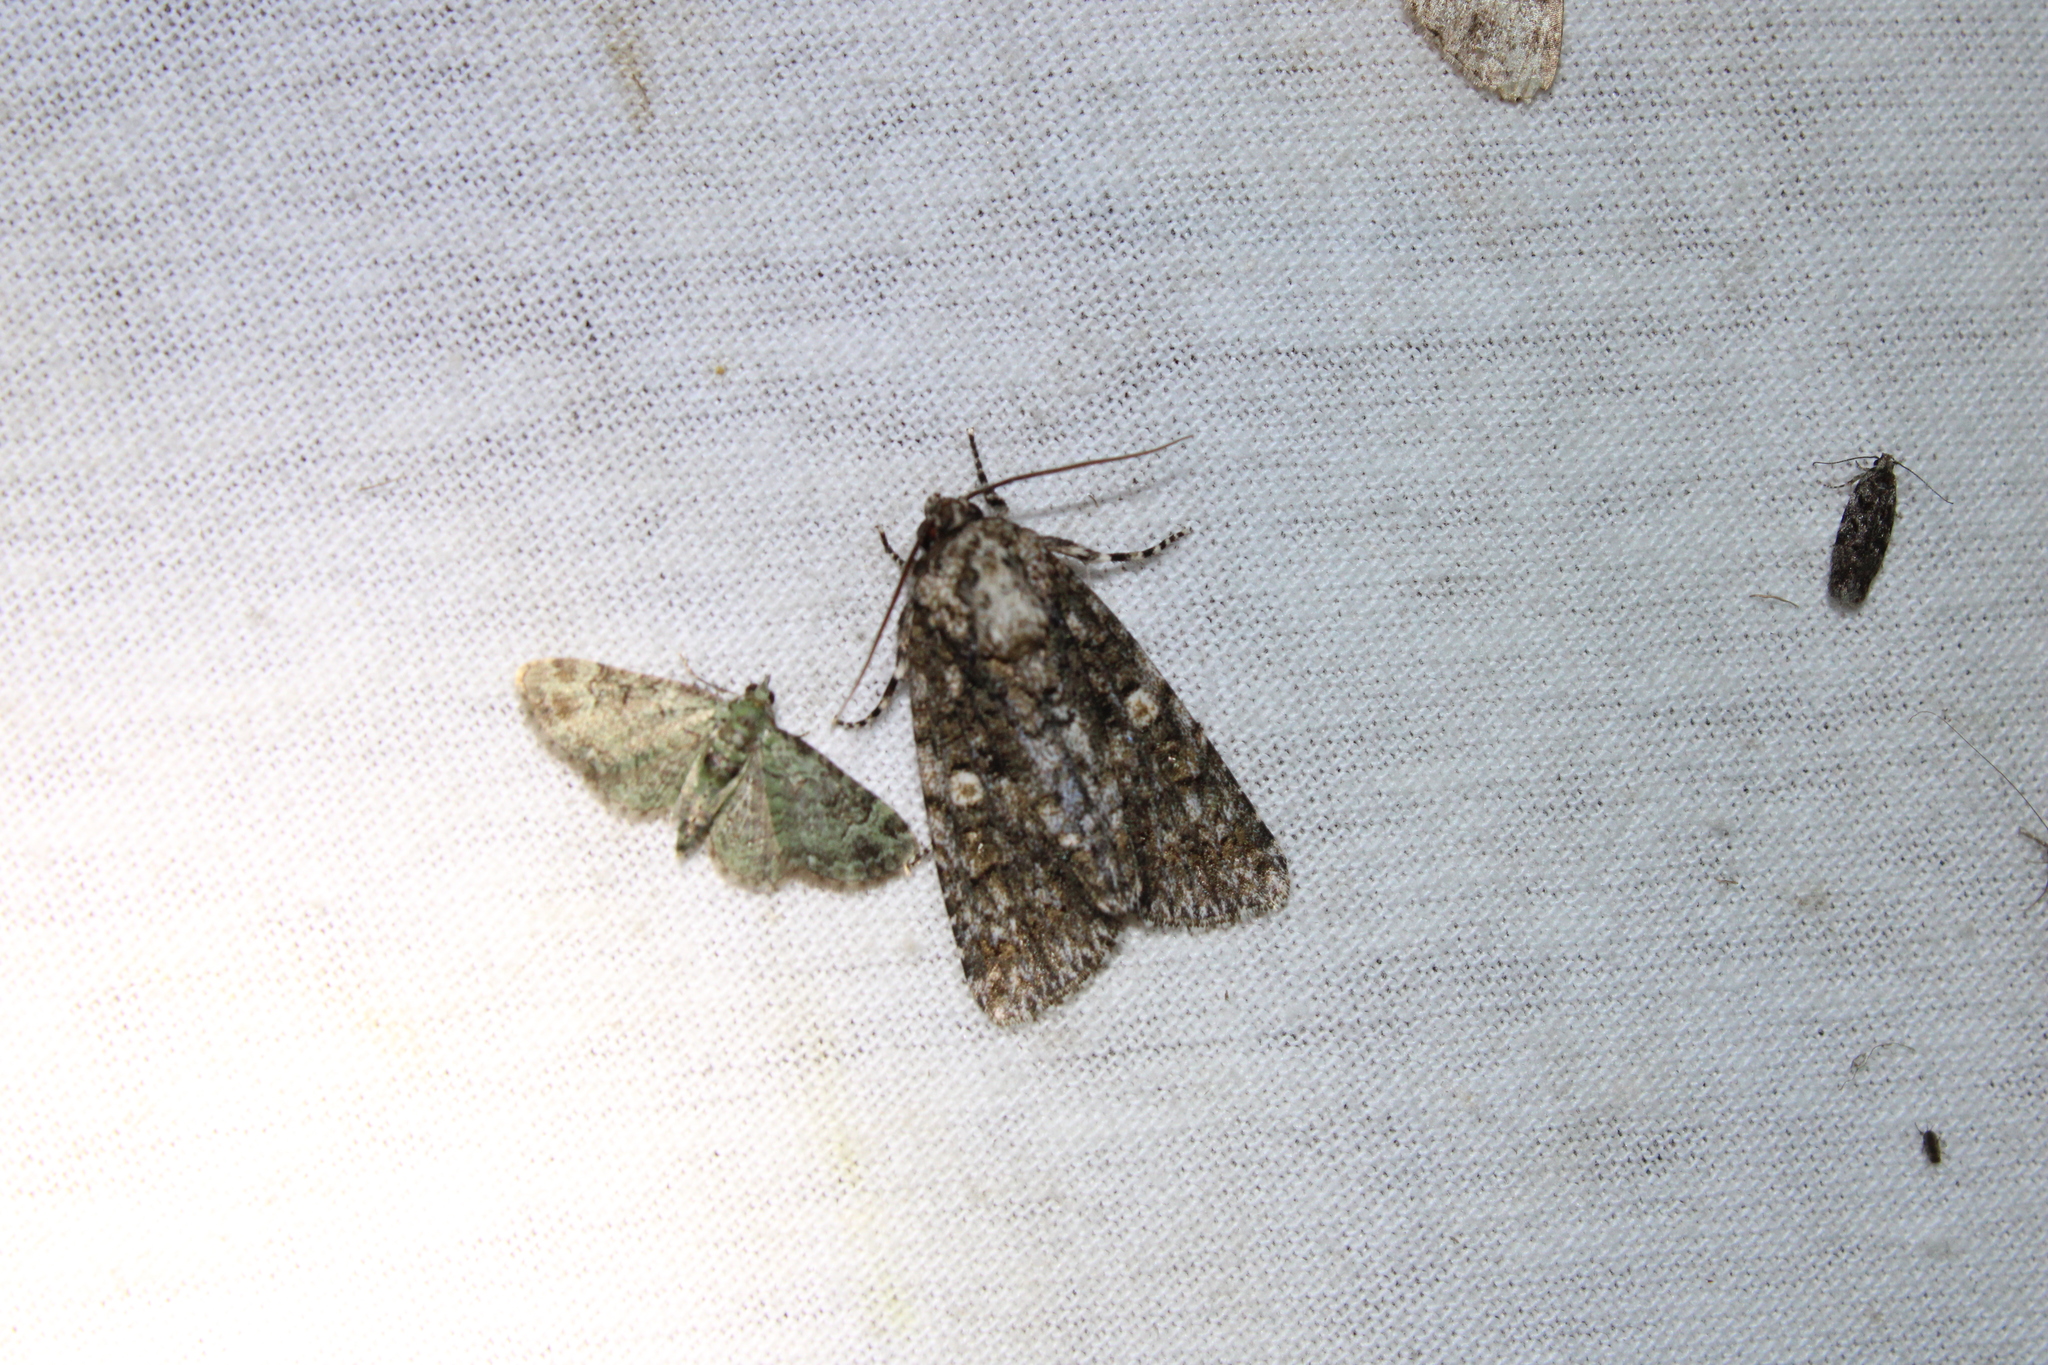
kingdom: Animalia
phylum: Arthropoda
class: Insecta
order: Lepidoptera
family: Noctuidae
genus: Acronicta
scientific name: Acronicta afflicta
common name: Afflicted dagger moth
